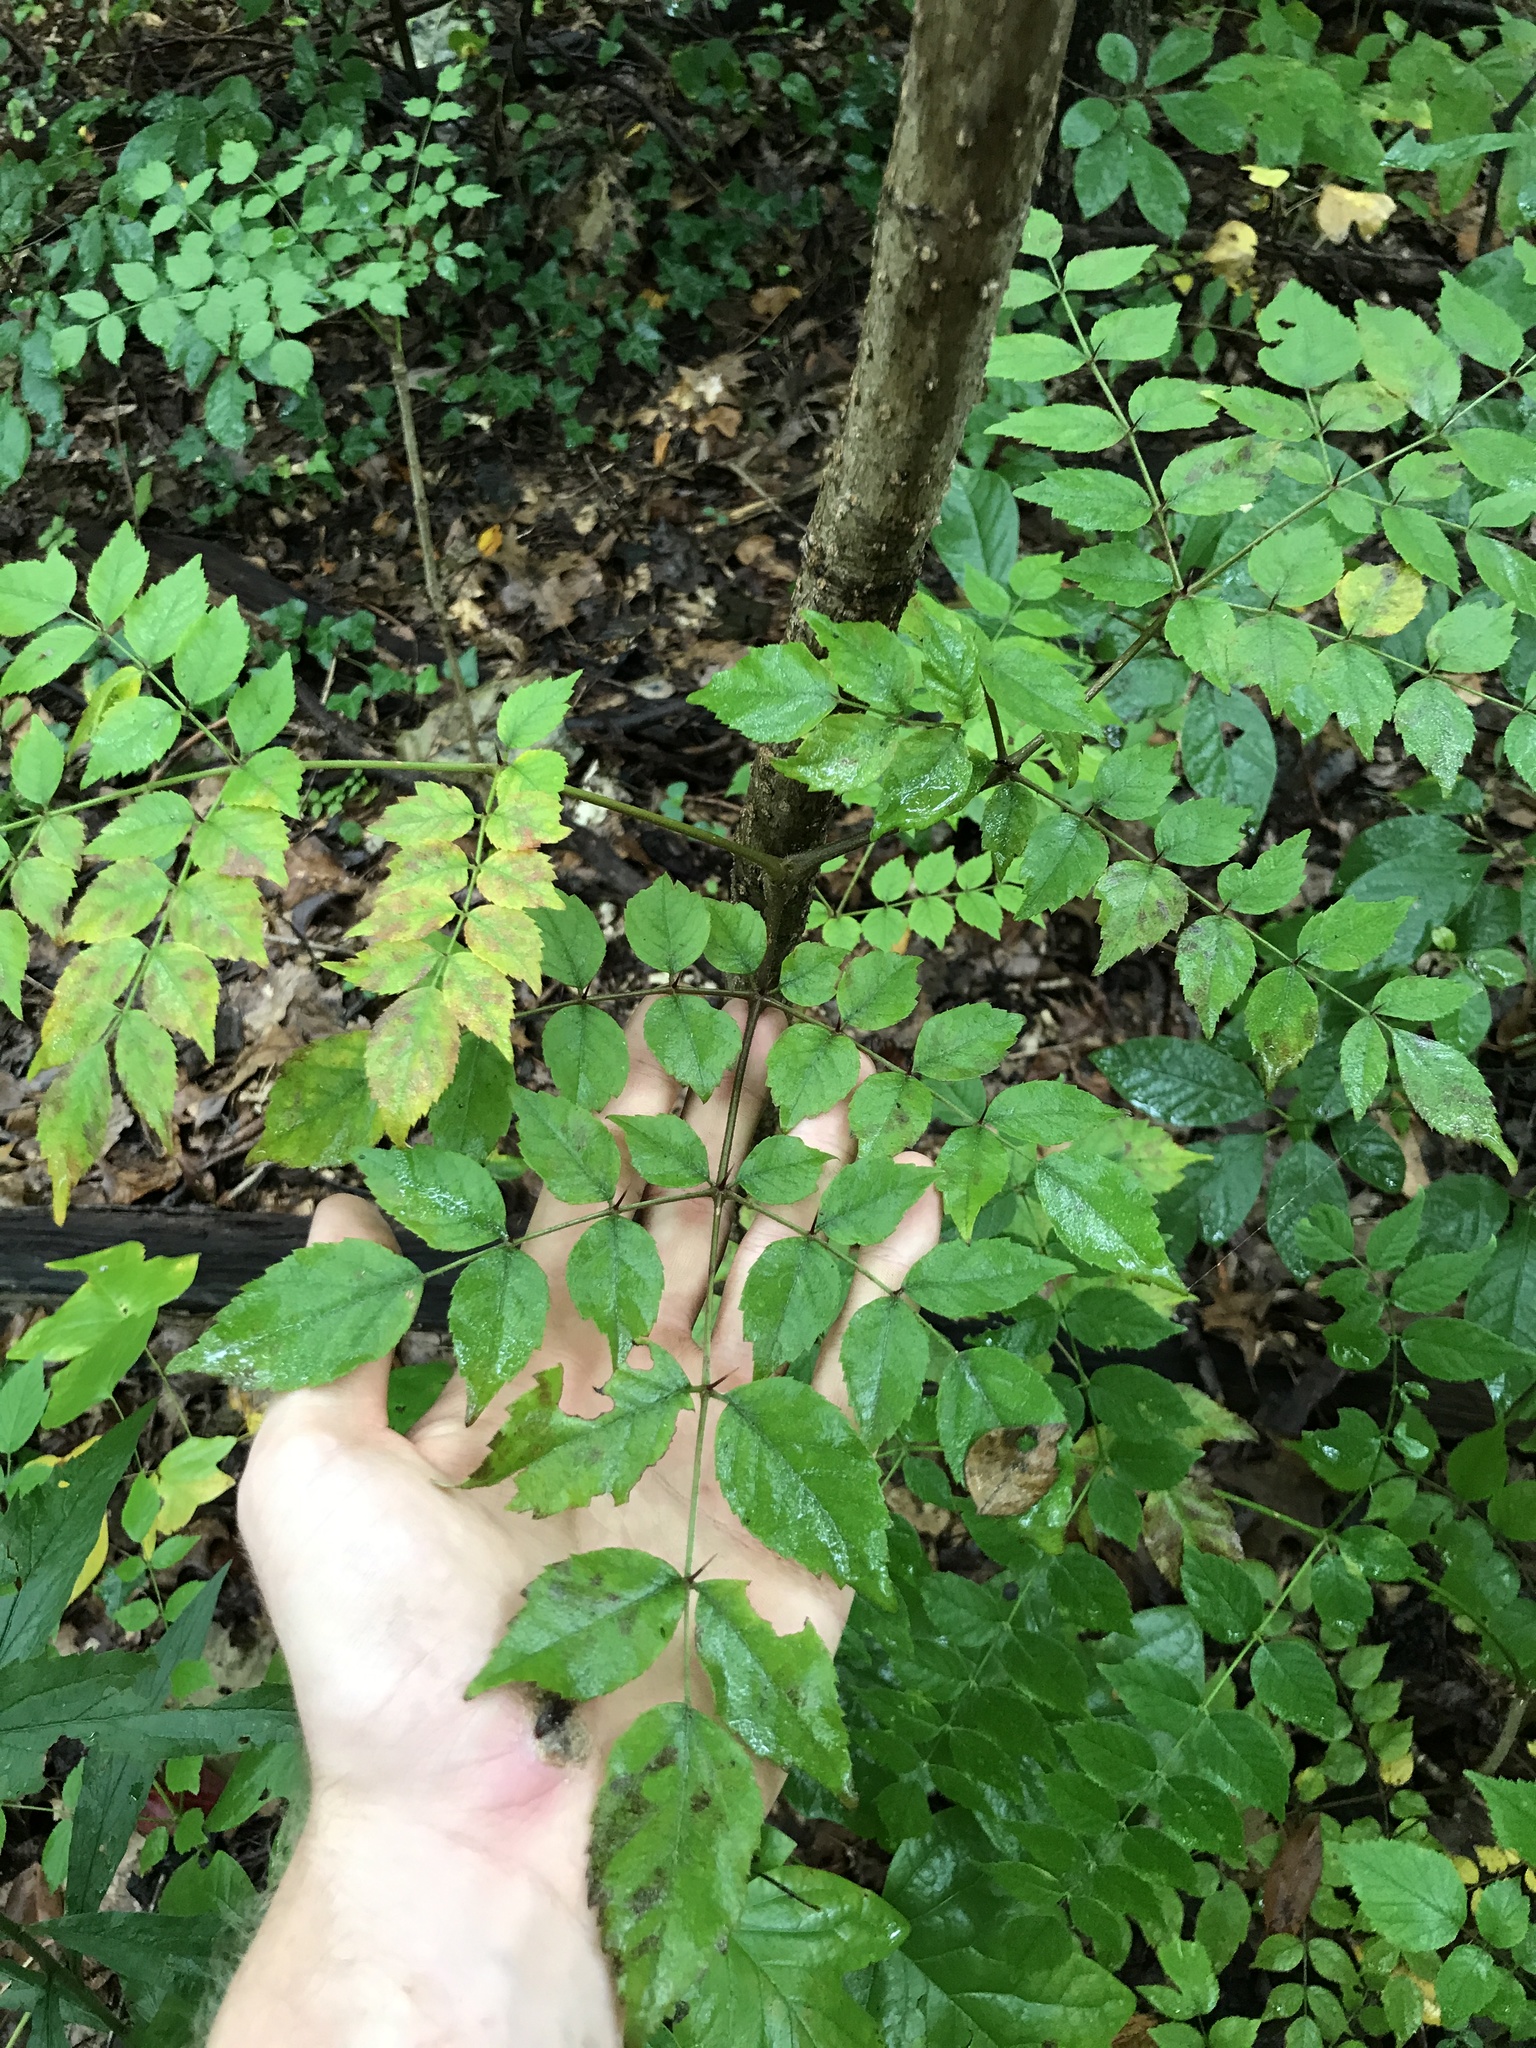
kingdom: Plantae
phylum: Tracheophyta
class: Magnoliopsida
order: Apiales
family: Araliaceae
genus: Aralia
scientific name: Aralia elata
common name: Japanese angelica-tree
